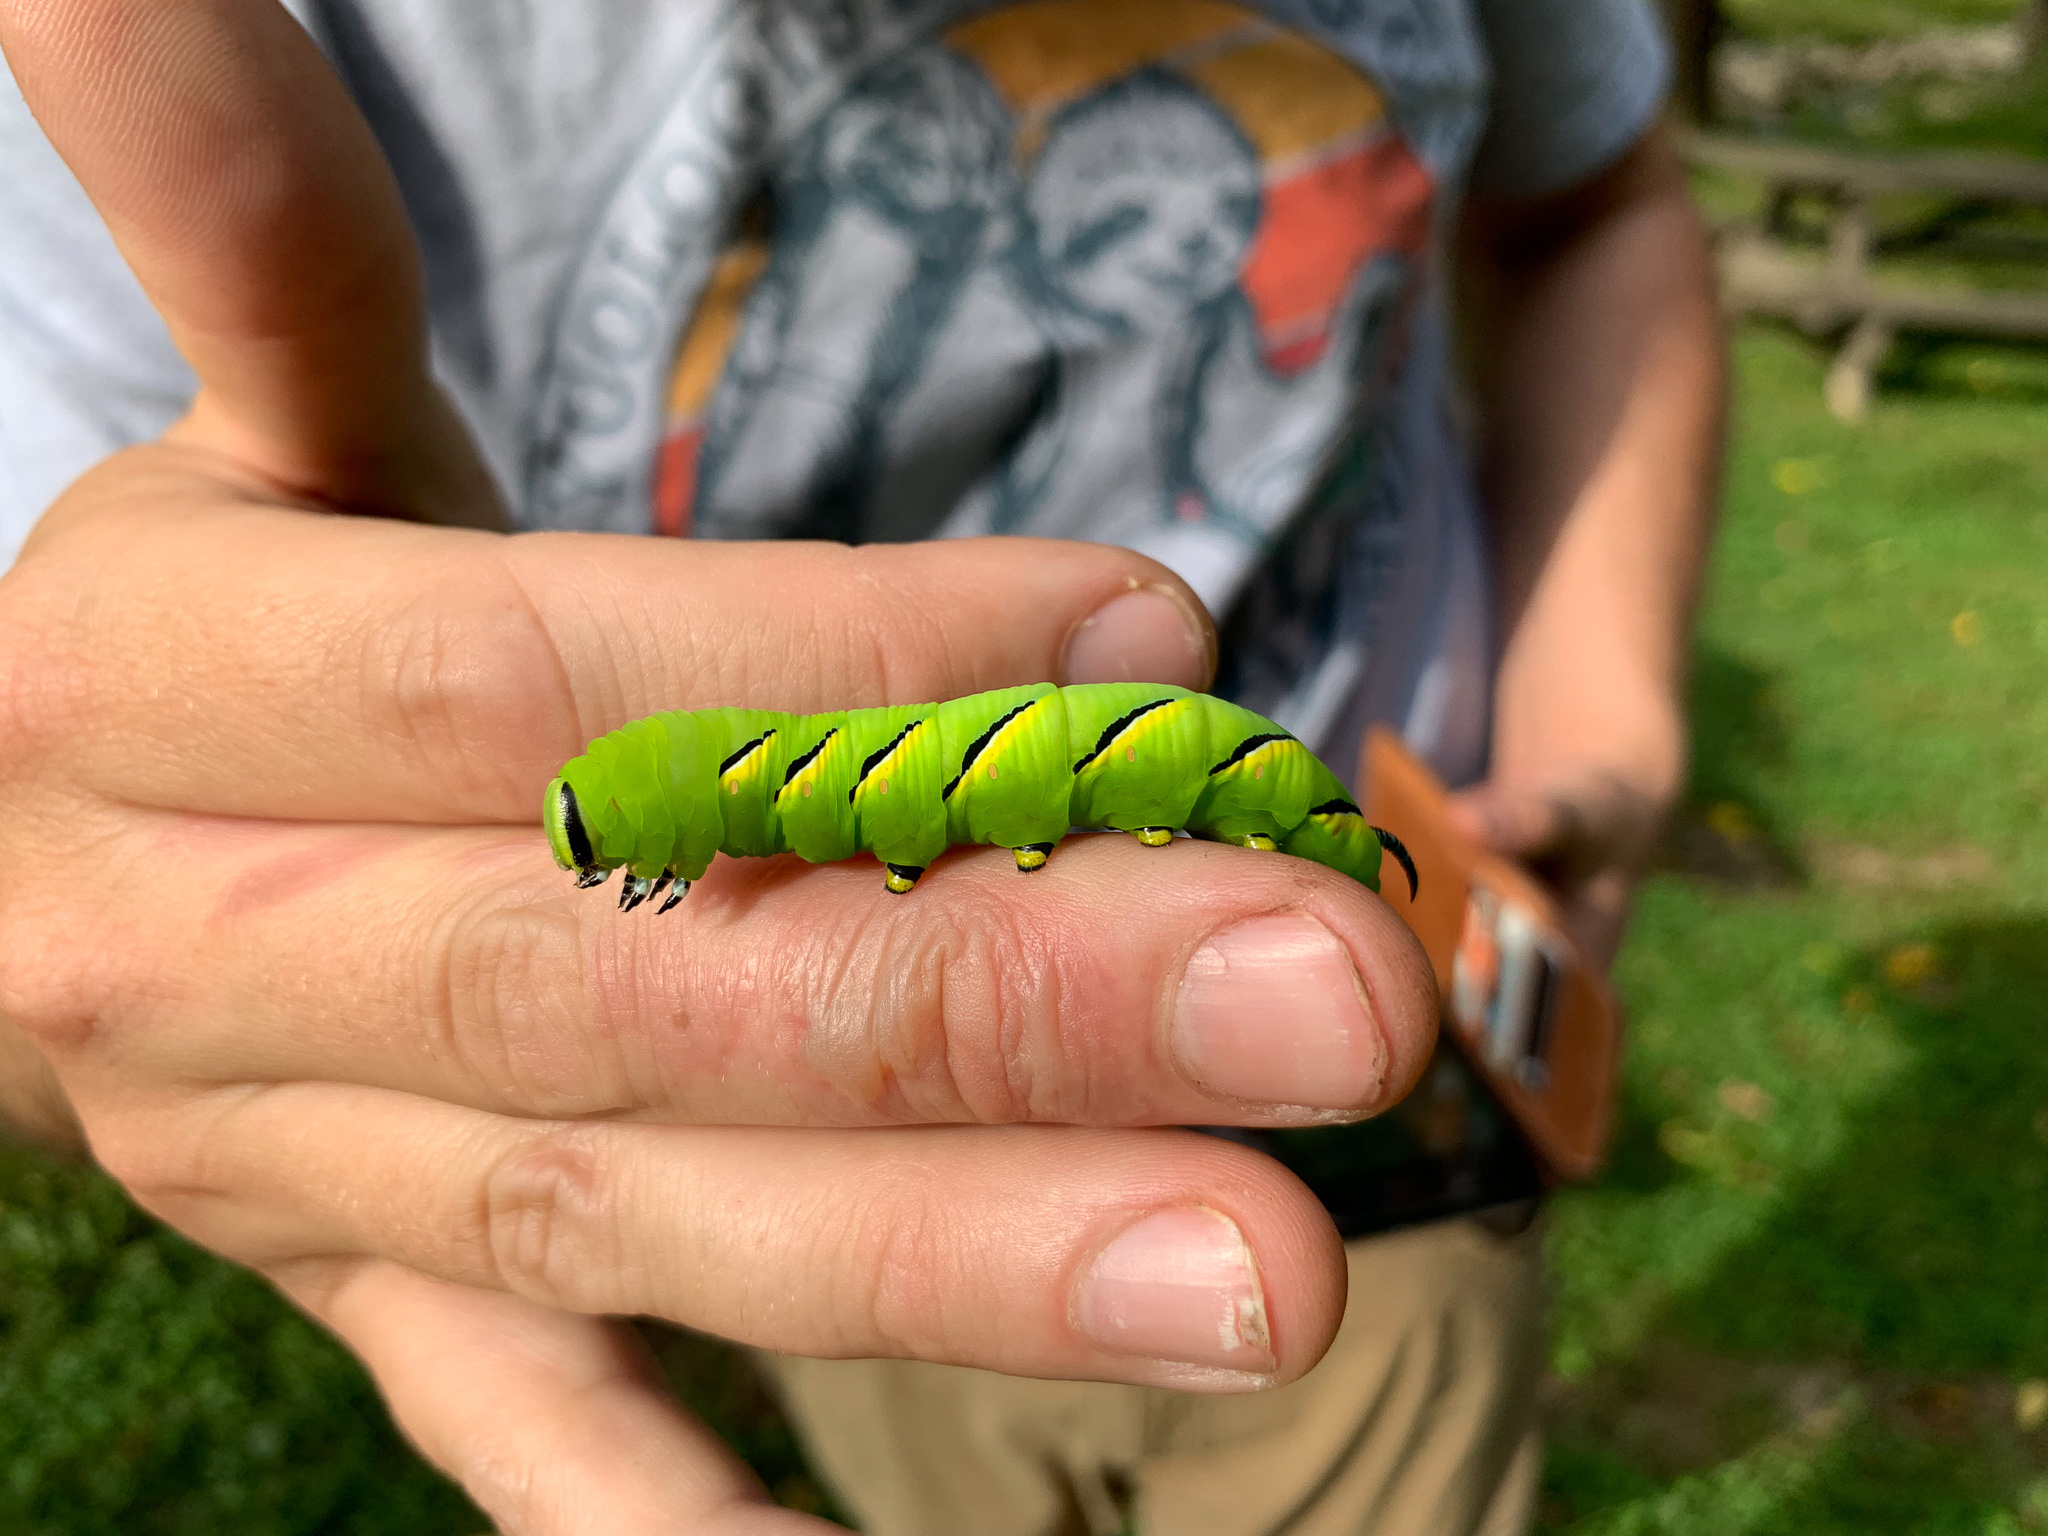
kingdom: Animalia
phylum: Arthropoda
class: Insecta
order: Lepidoptera
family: Sphingidae
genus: Sphinx
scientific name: Sphinx kalmiae
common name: Laurel sphinx
